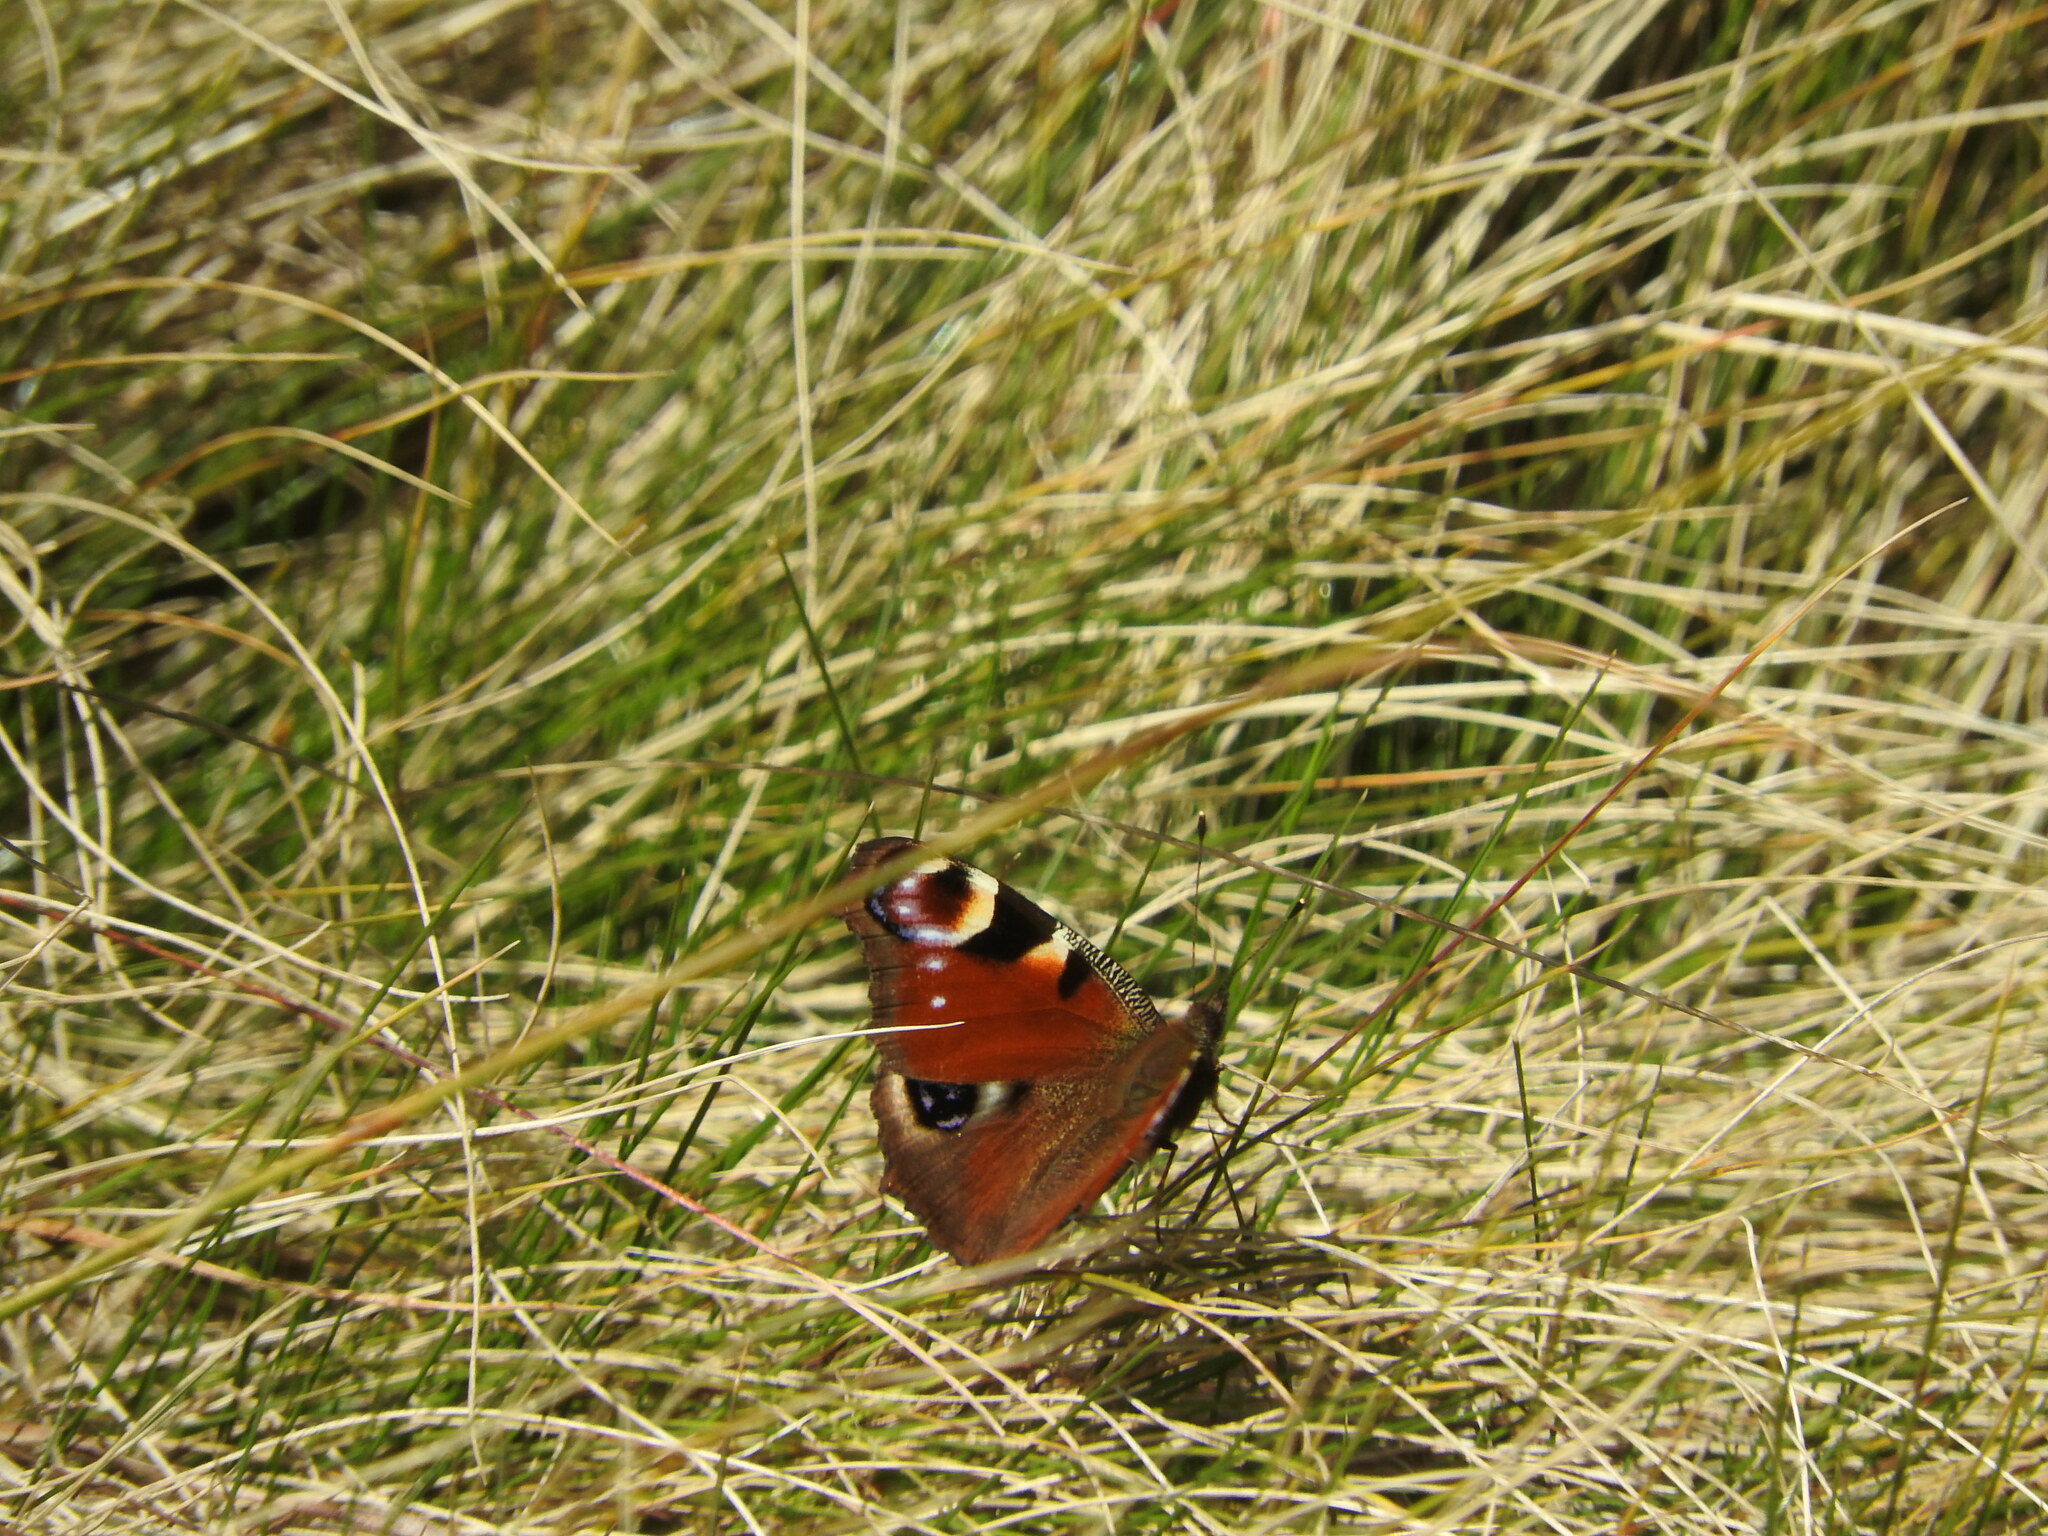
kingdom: Animalia
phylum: Arthropoda
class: Insecta
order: Lepidoptera
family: Nymphalidae
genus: Aglais
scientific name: Aglais io
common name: Peacock
